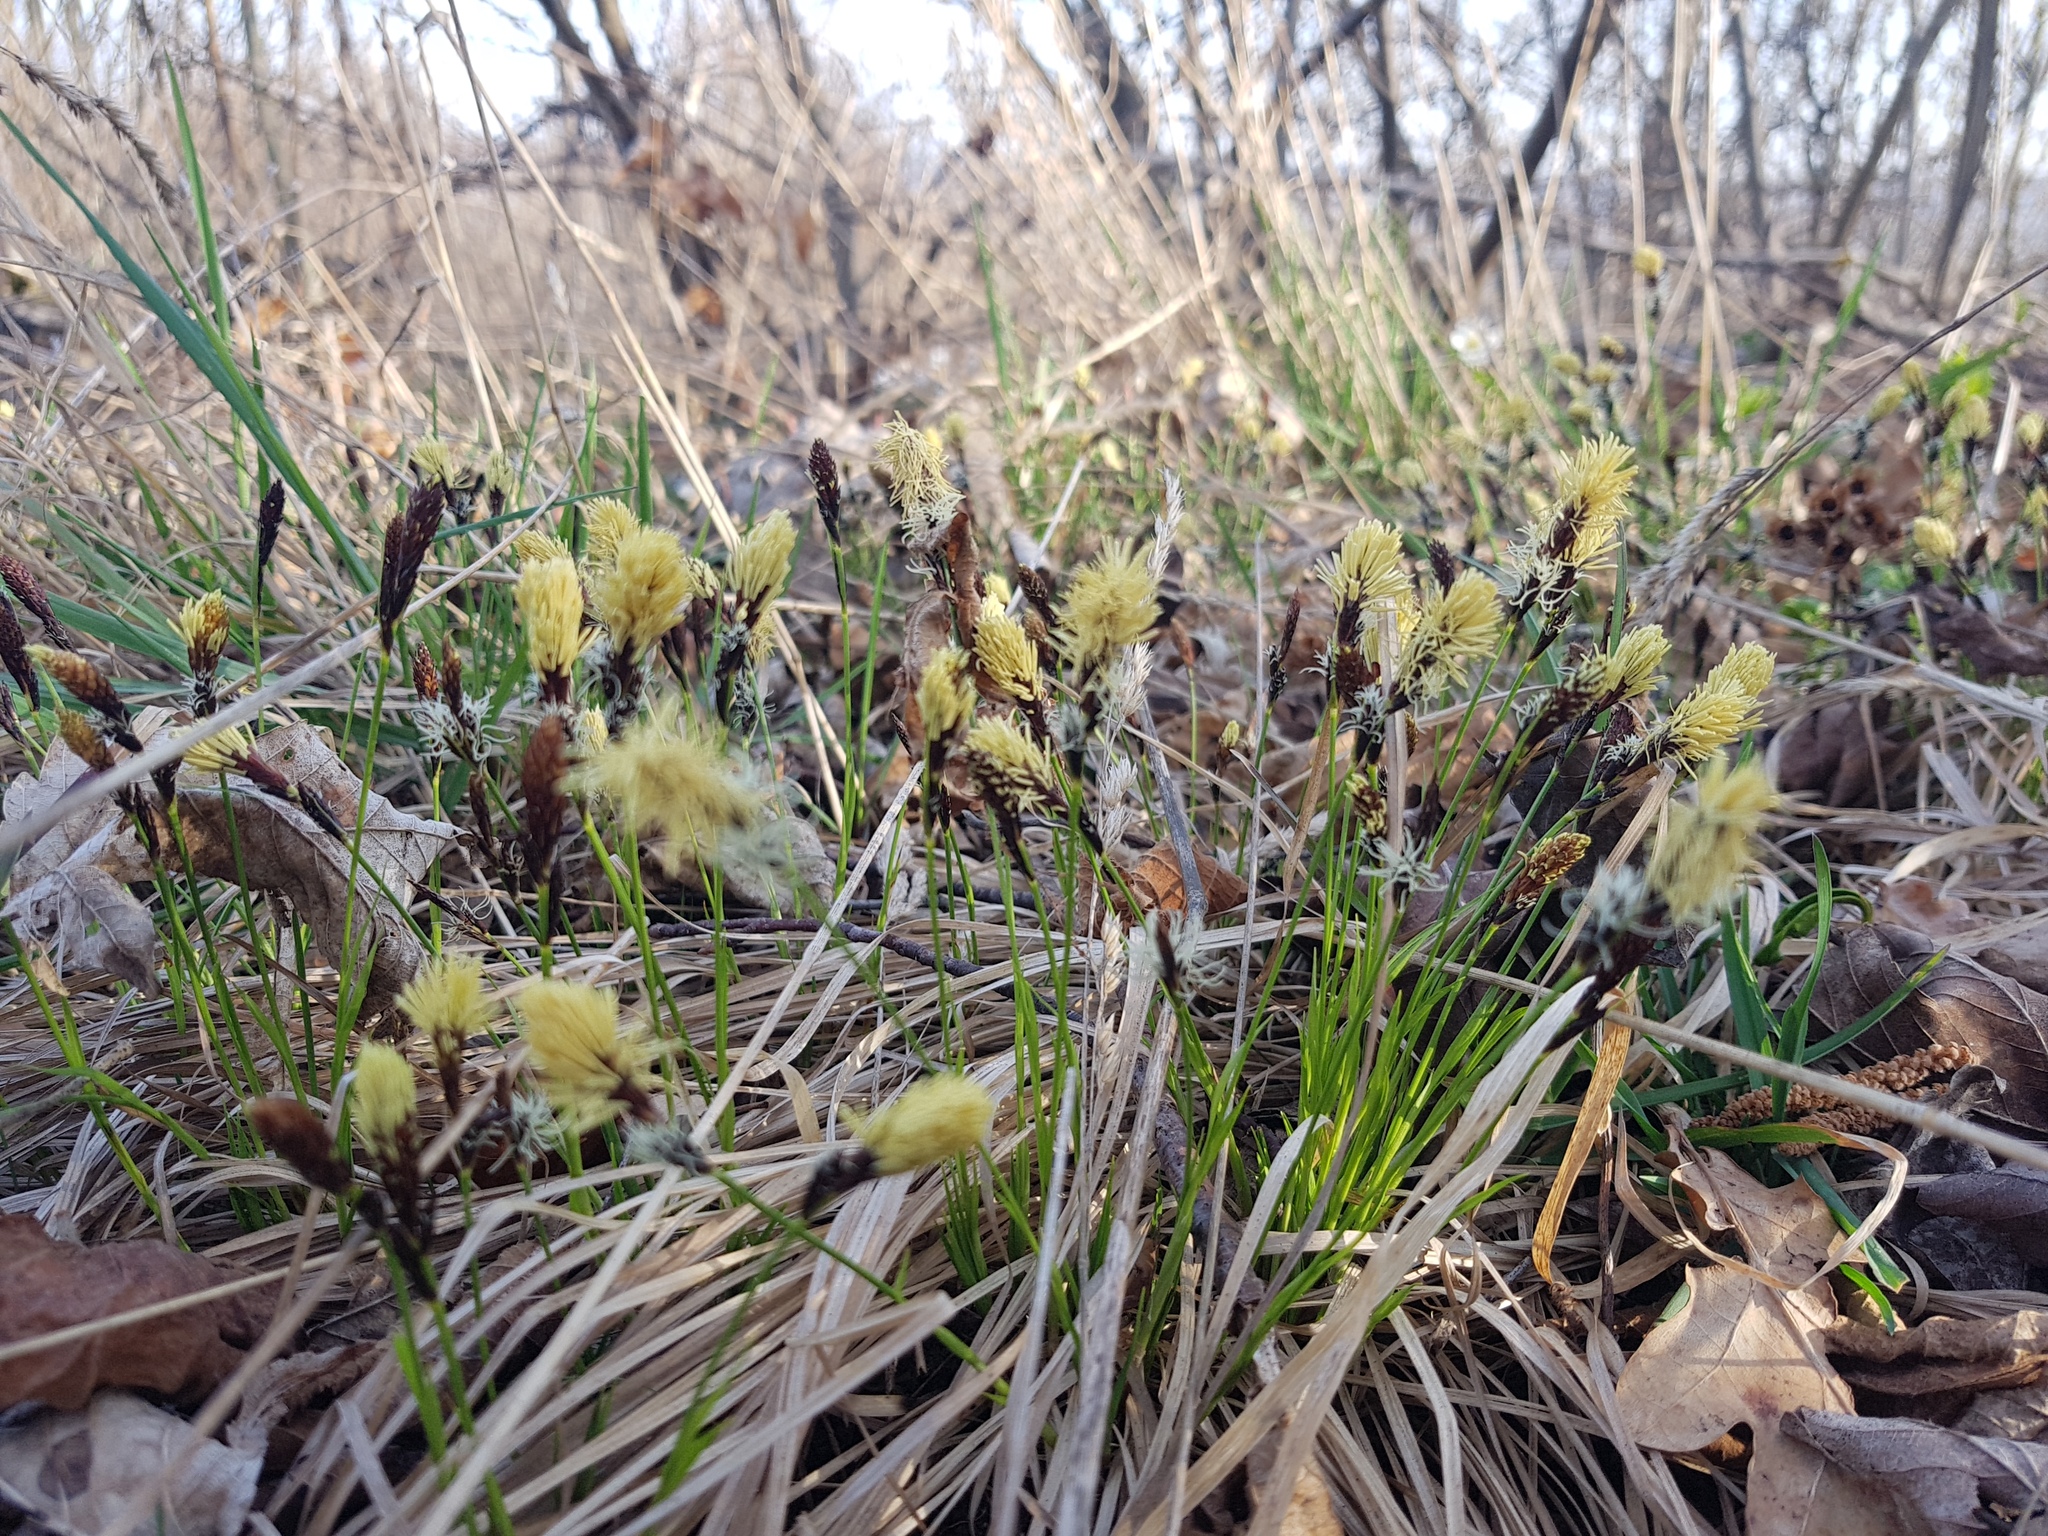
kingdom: Plantae
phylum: Tracheophyta
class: Liliopsida
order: Poales
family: Cyperaceae
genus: Carex
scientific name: Carex caryophyllea
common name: Spring sedge
